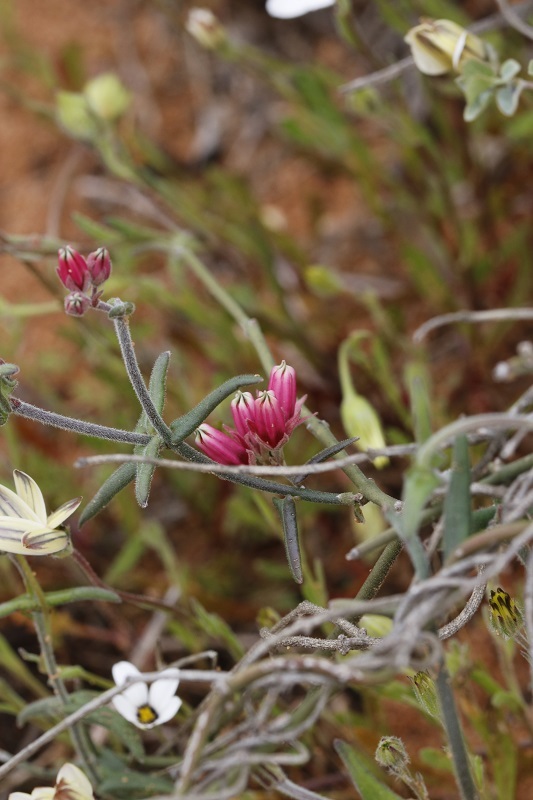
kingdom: Plantae
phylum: Tracheophyta
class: Magnoliopsida
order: Gentianales
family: Apocynaceae
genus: Microloma
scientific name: Microloma sagittatum
